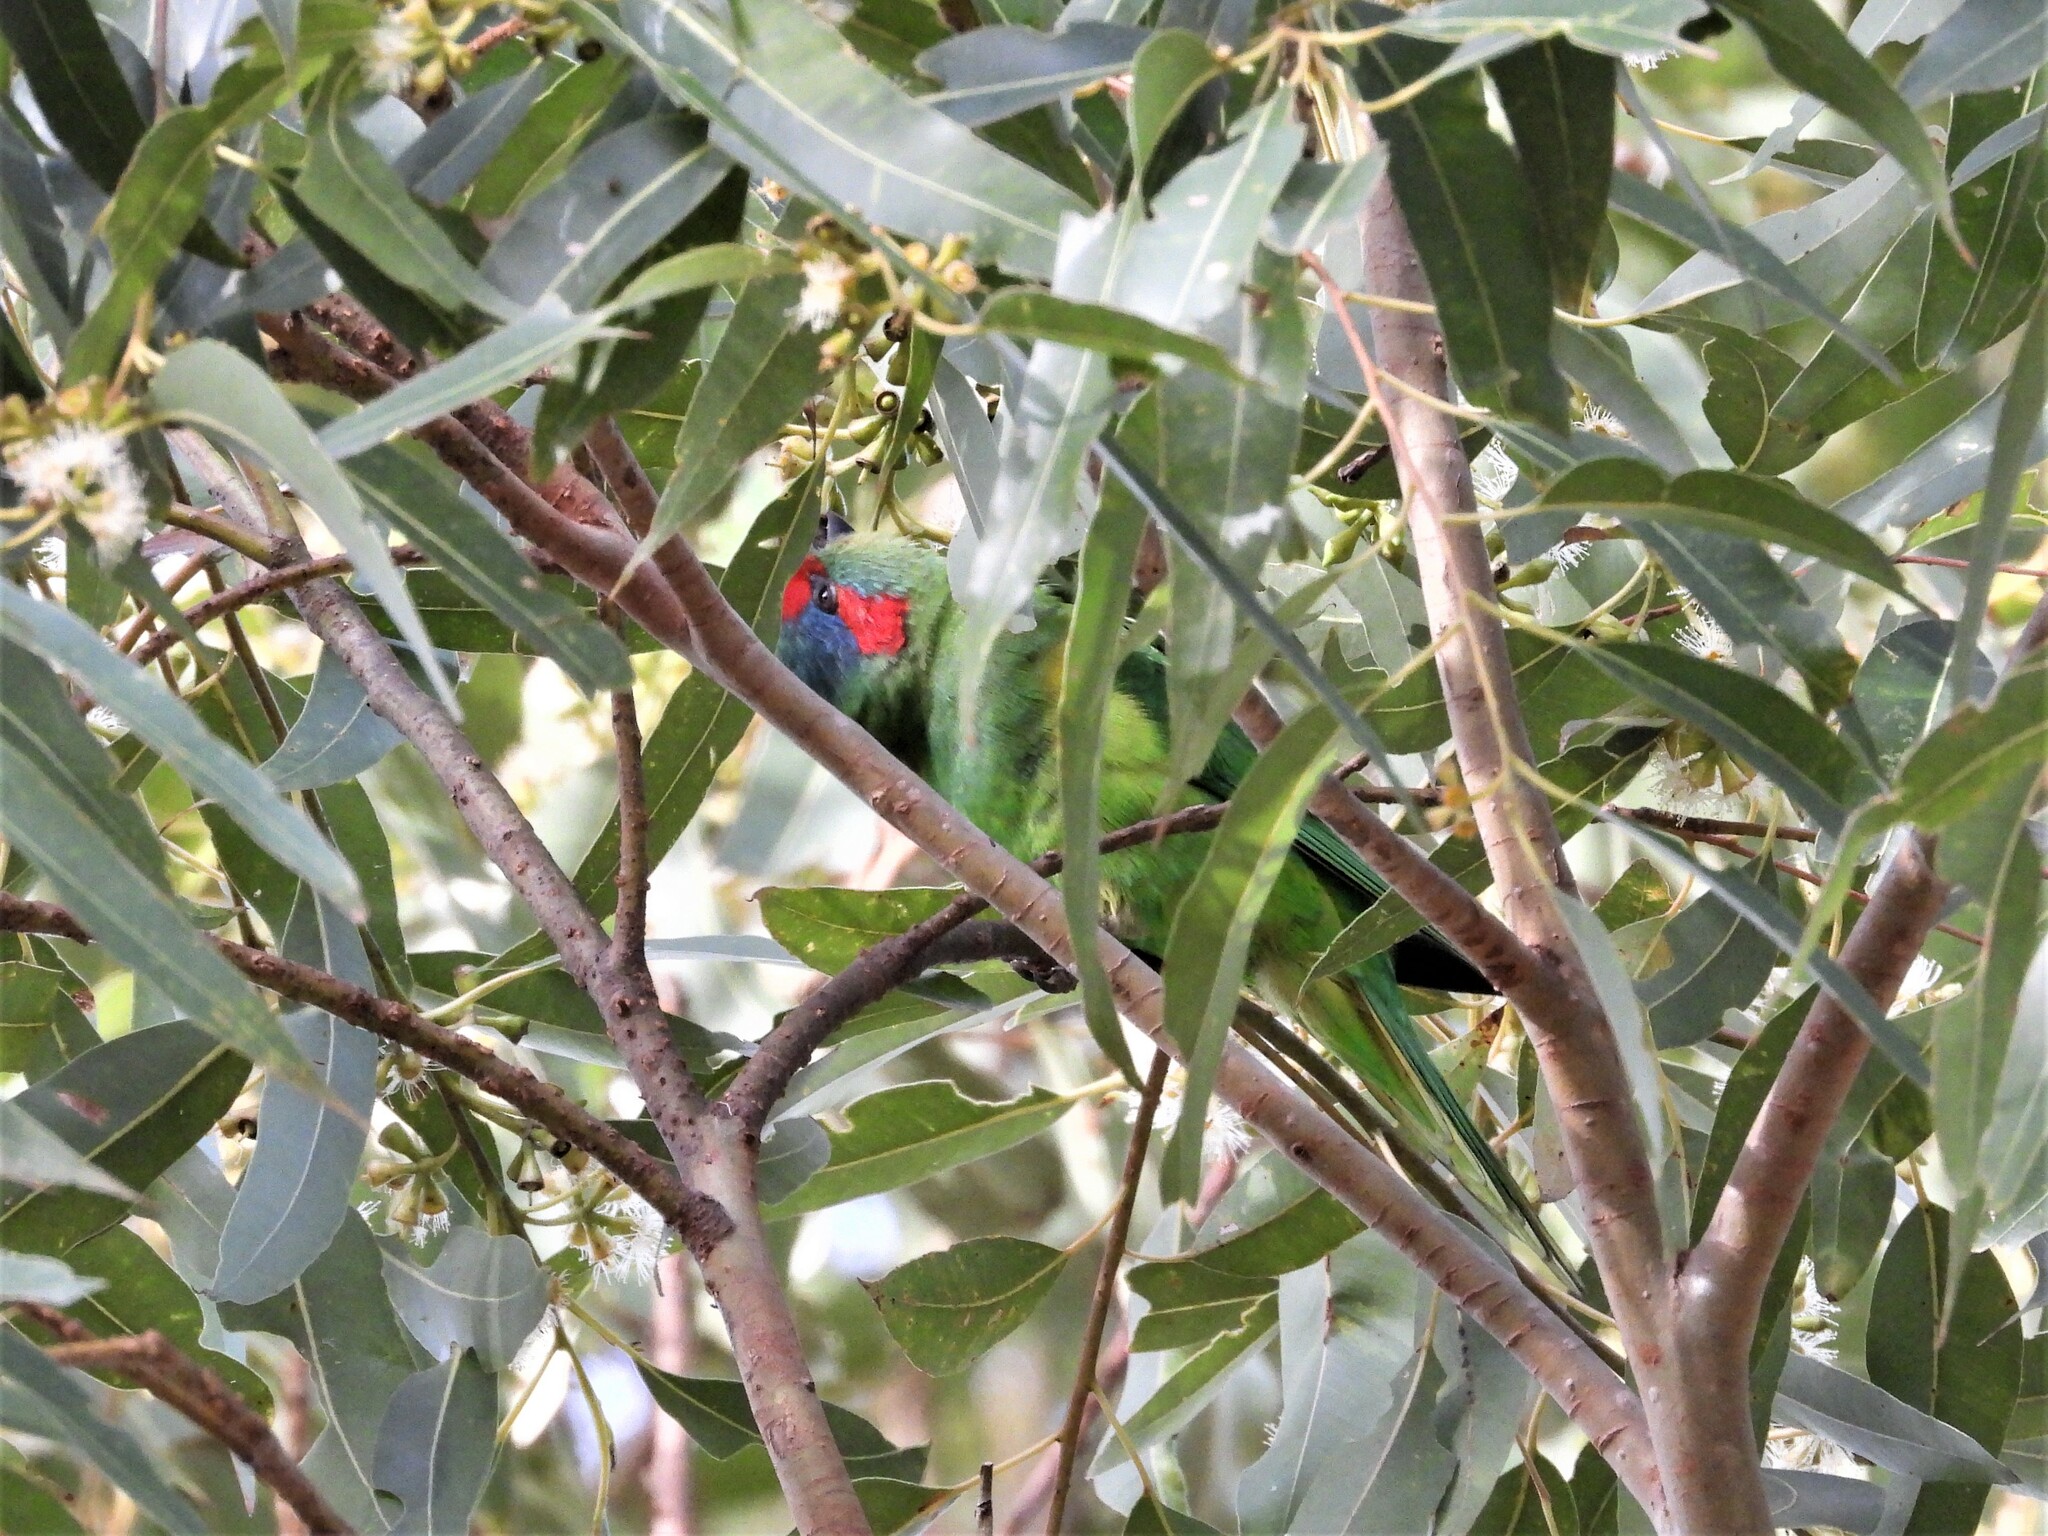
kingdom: Animalia
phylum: Chordata
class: Aves
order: Psittaciformes
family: Psittacidae
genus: Glossopsitta
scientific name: Glossopsitta concinna
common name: Musk lorikeet
